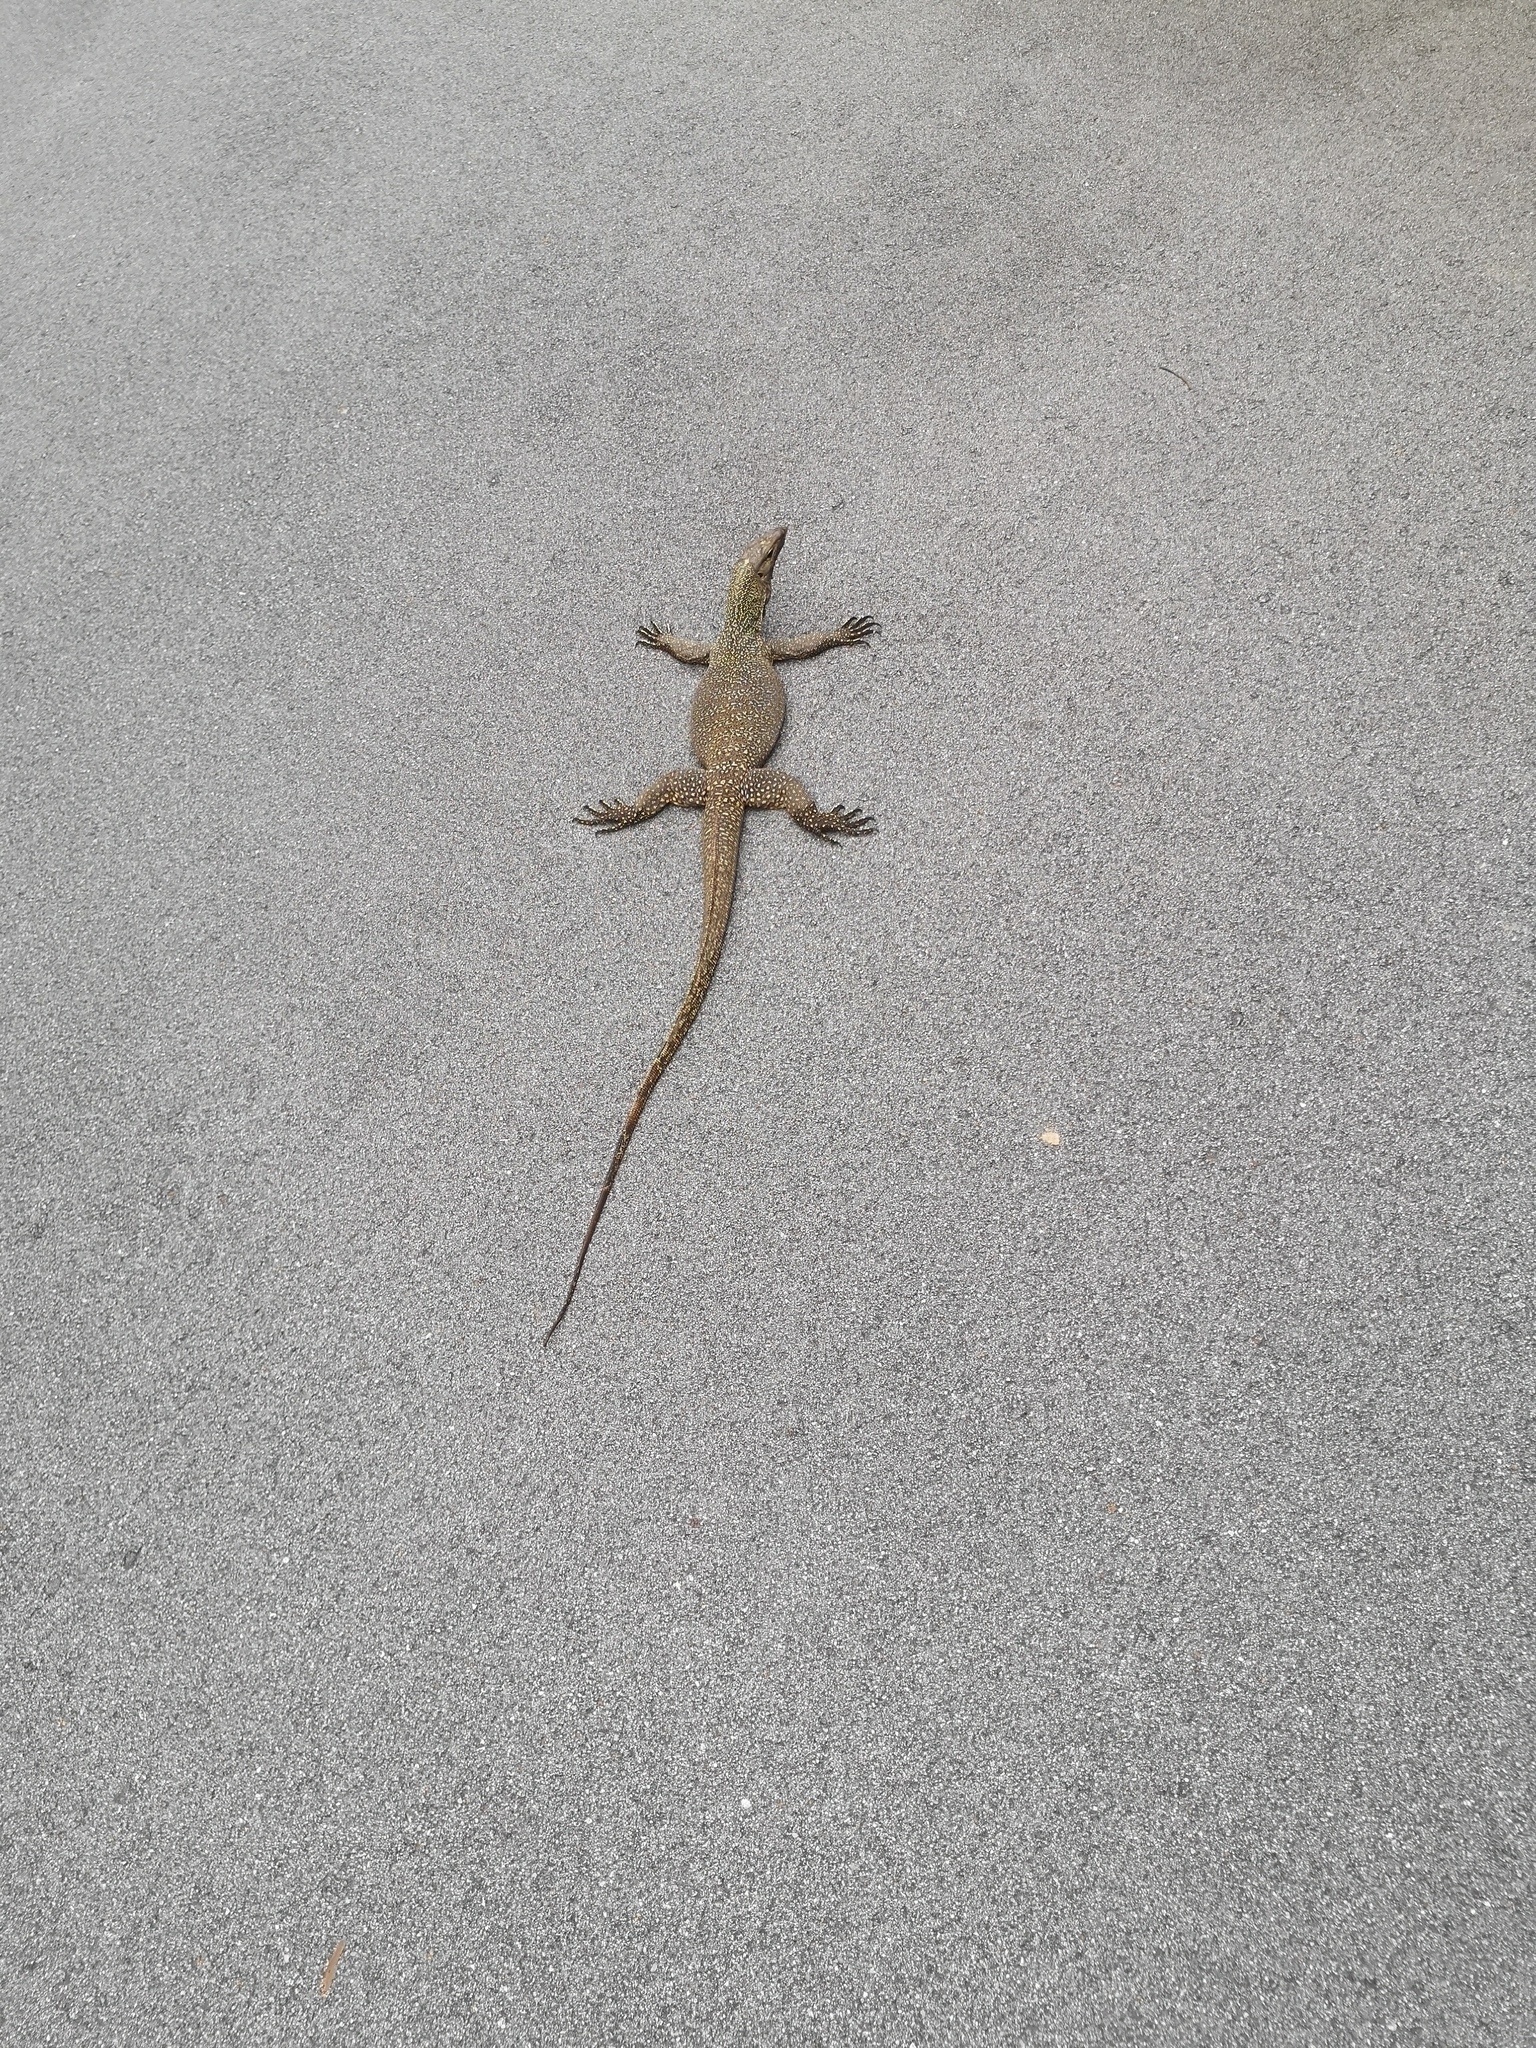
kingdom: Animalia
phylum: Chordata
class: Squamata
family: Varanidae
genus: Varanus
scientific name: Varanus nebulosus
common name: Clouded monitor
